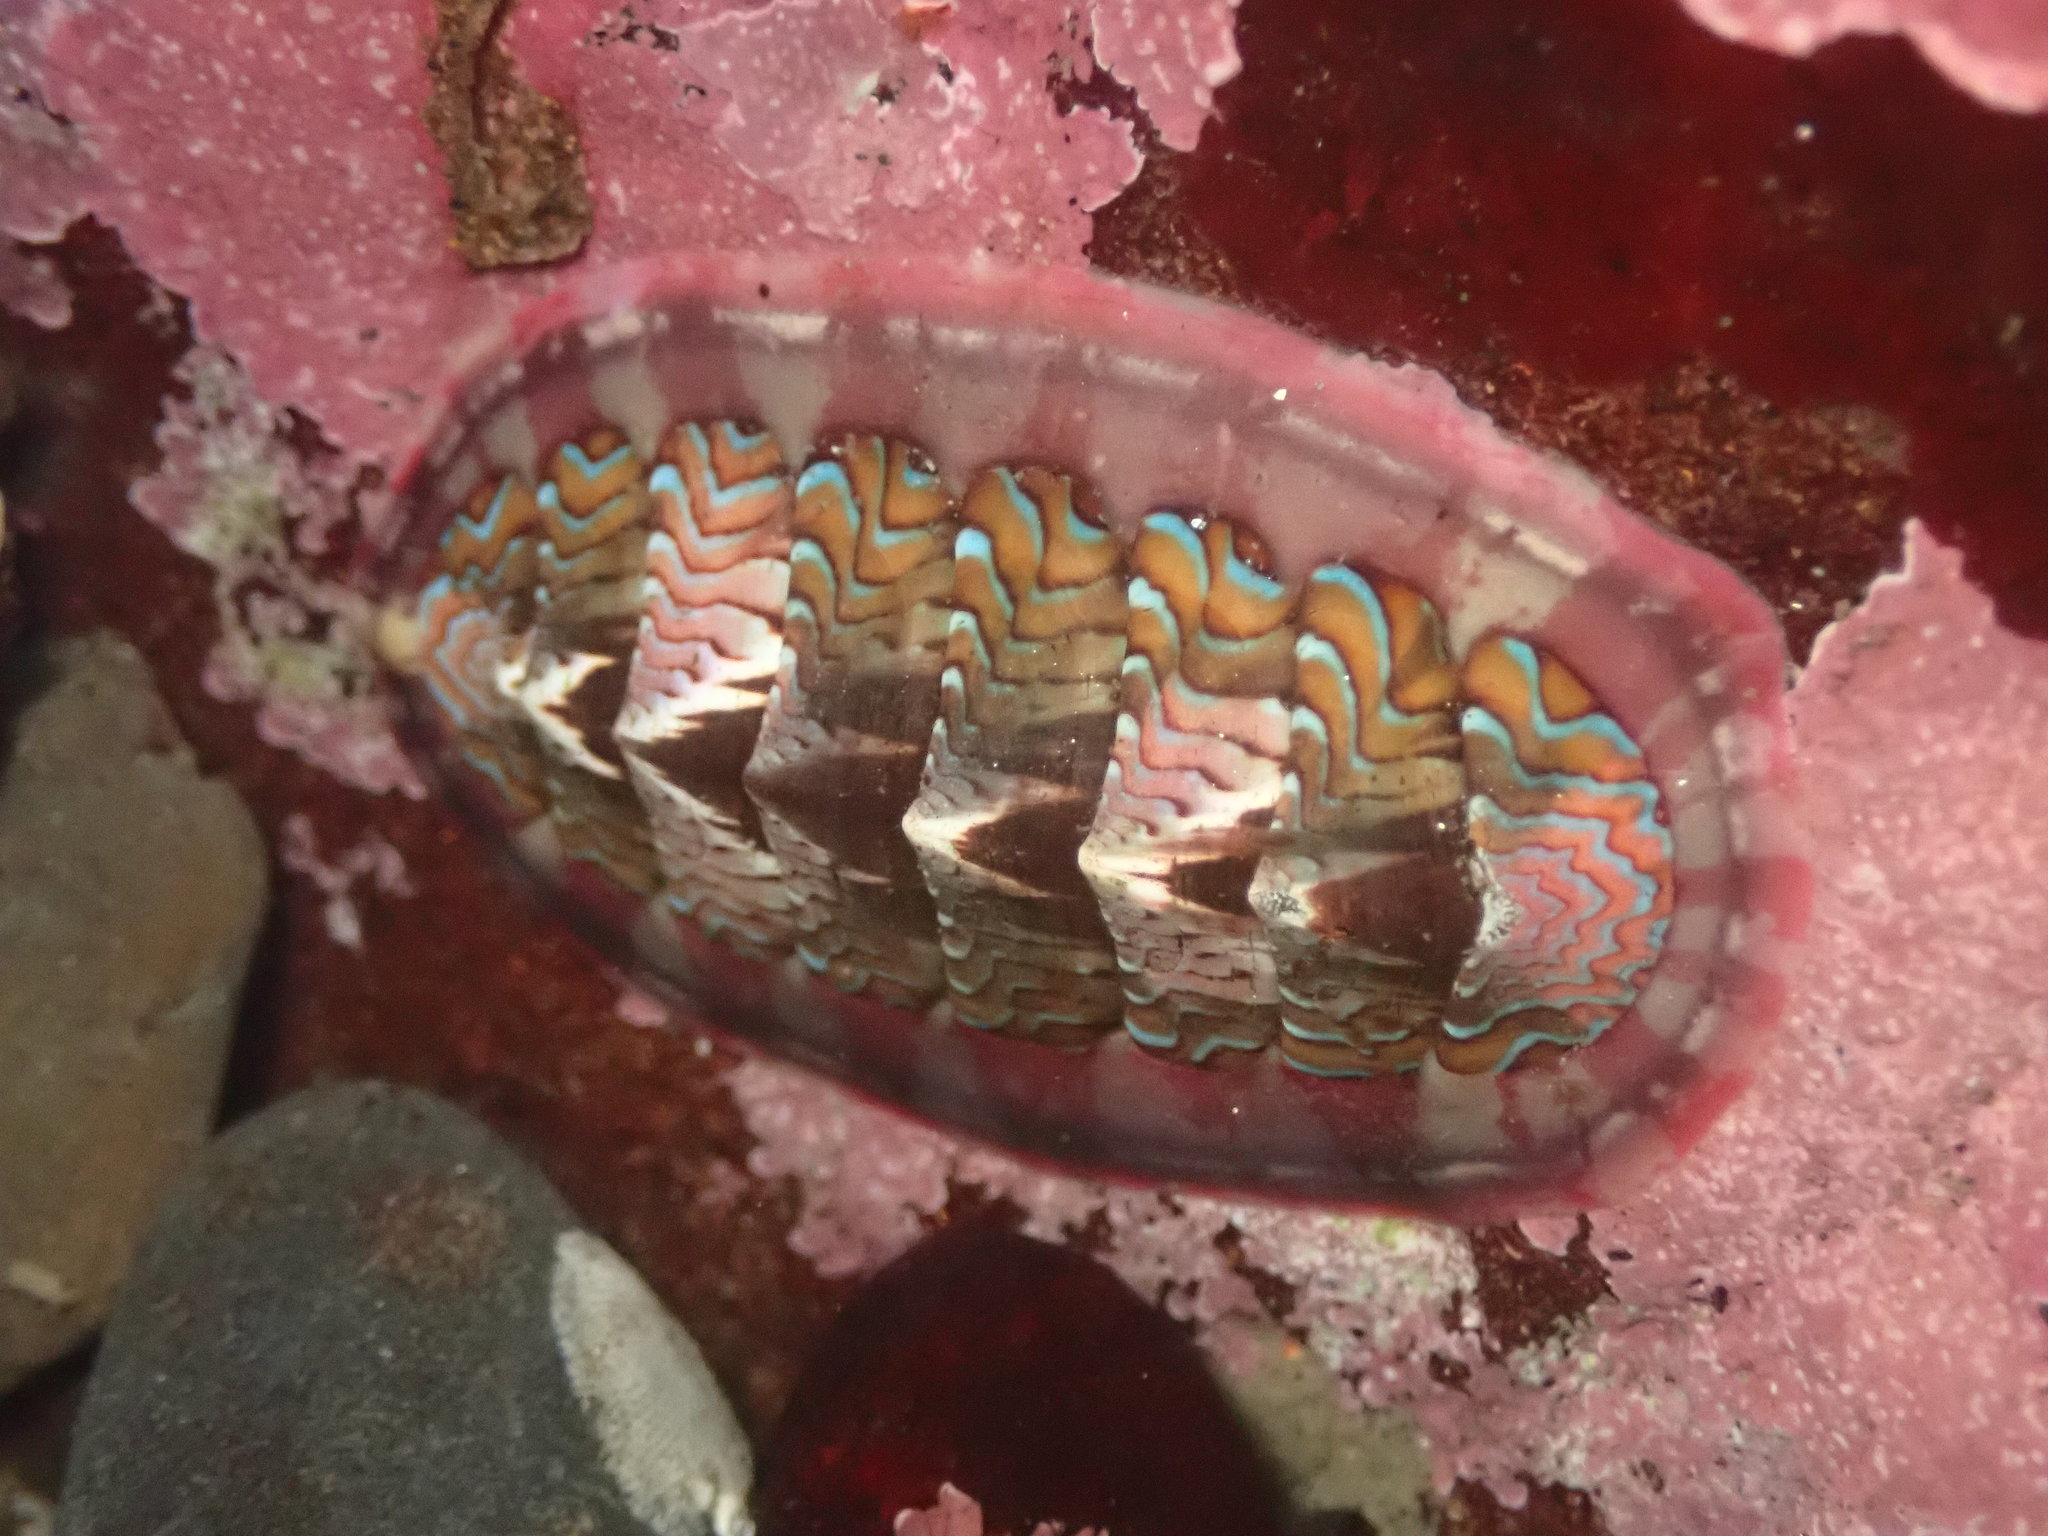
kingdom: Animalia
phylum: Mollusca
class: Polyplacophora
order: Chitonida
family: Tonicellidae
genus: Tonicella
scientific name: Tonicella lokii
